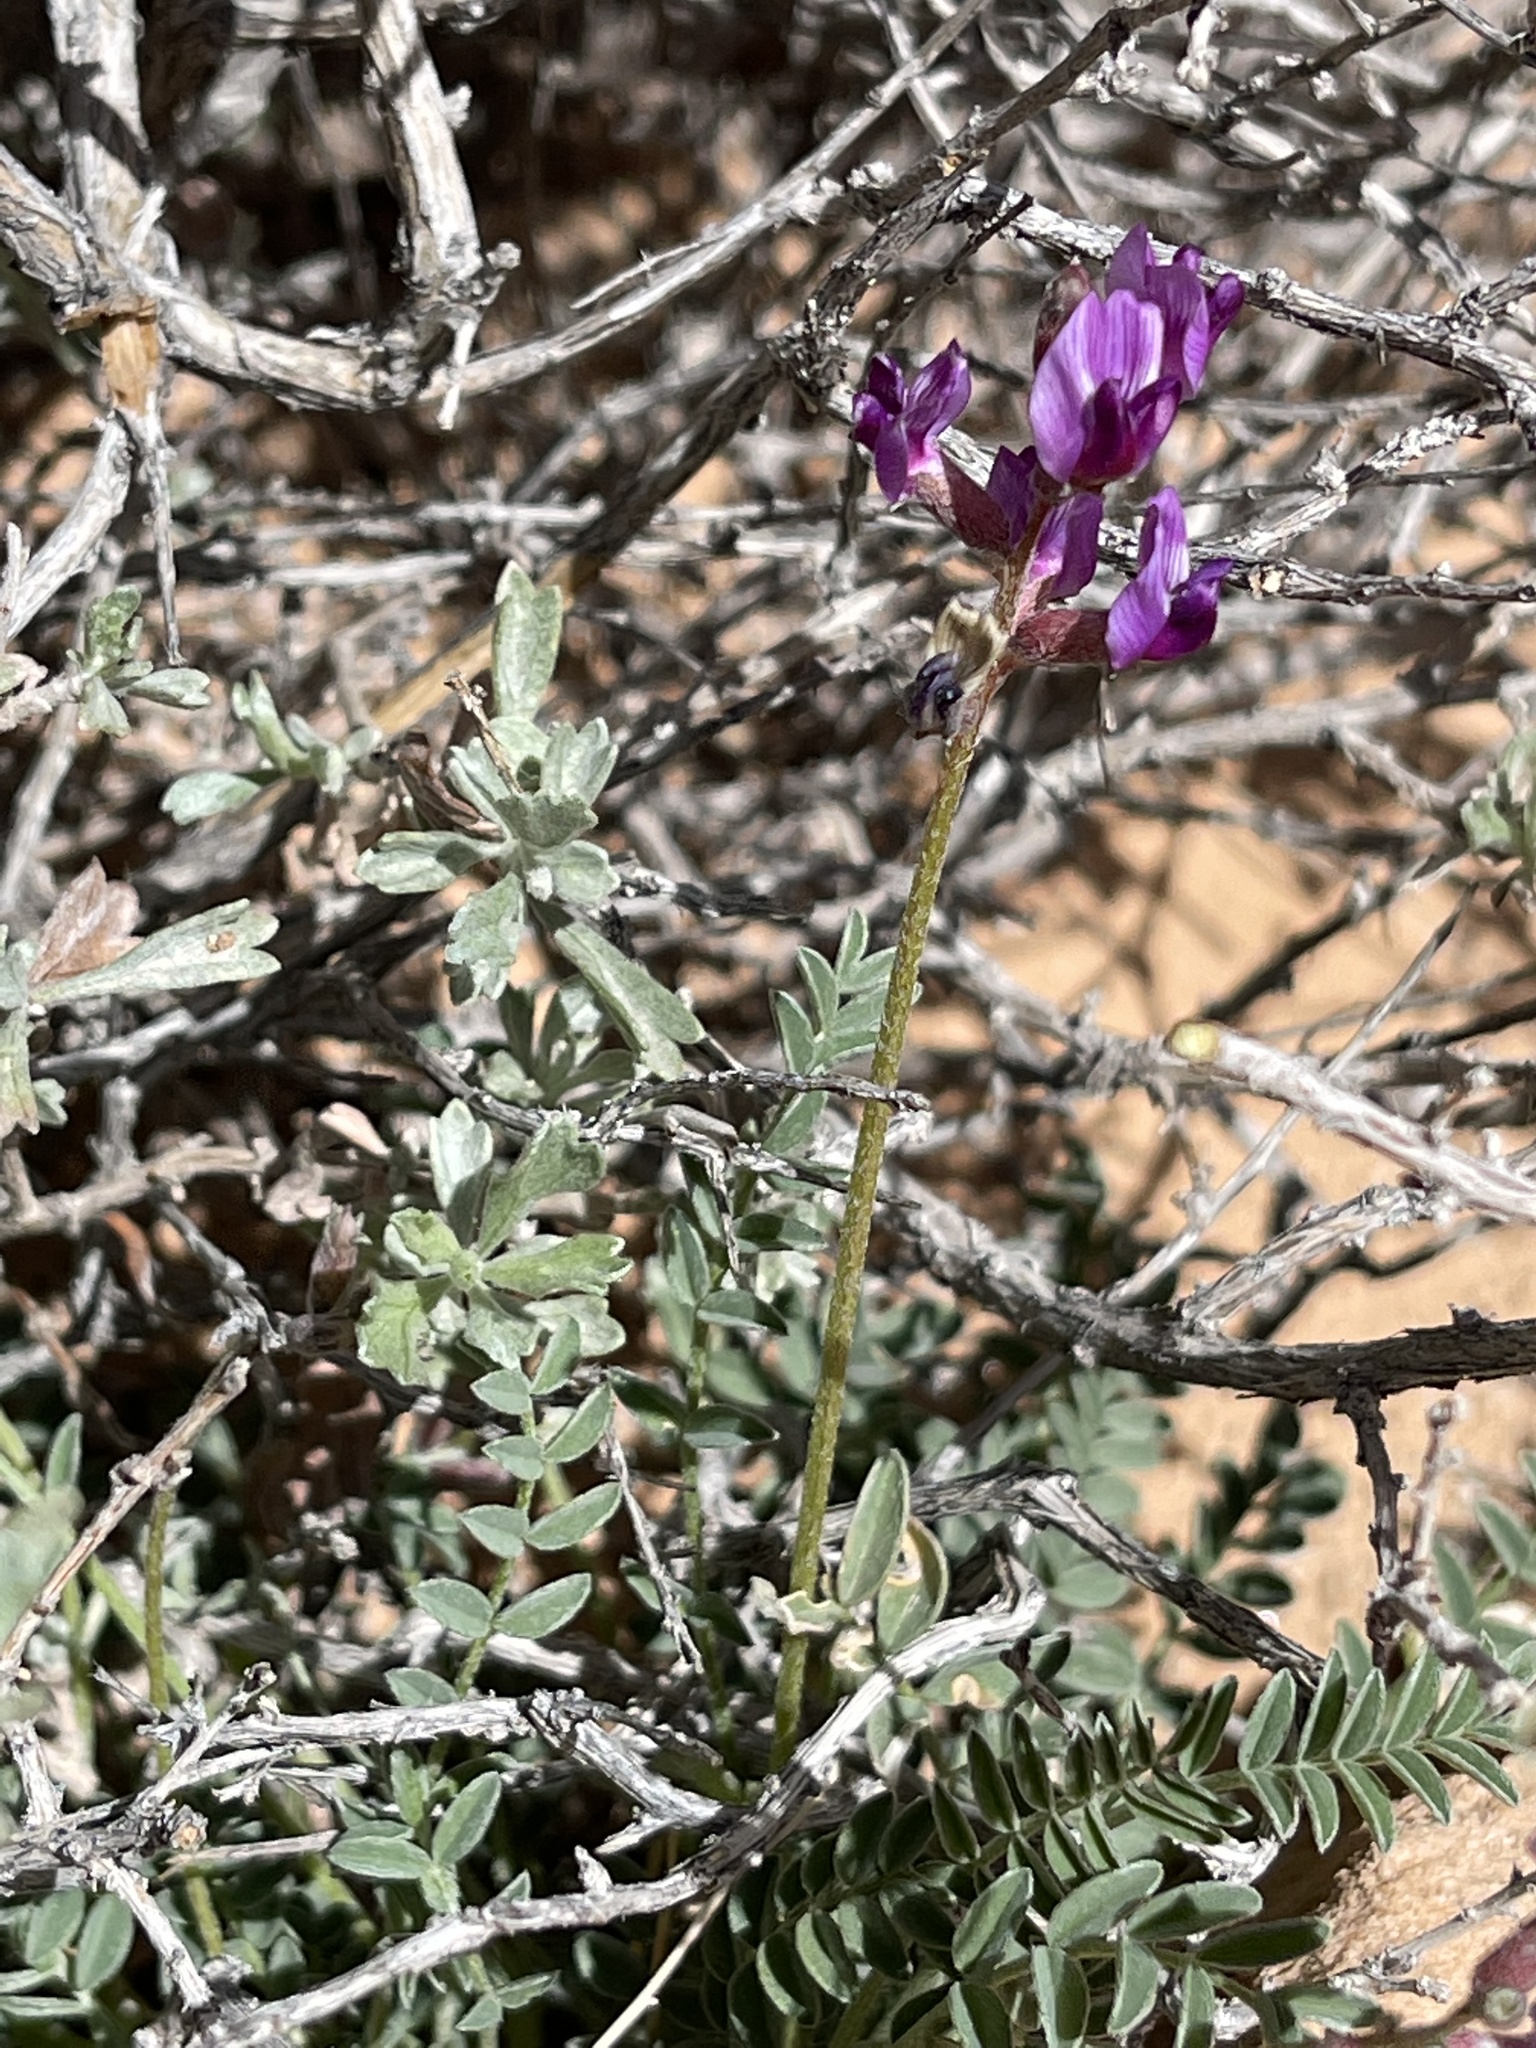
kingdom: Plantae
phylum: Tracheophyta
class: Magnoliopsida
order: Fabales
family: Fabaceae
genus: Astragalus
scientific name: Astragalus desperatus
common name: Rimrock milk-vetch
